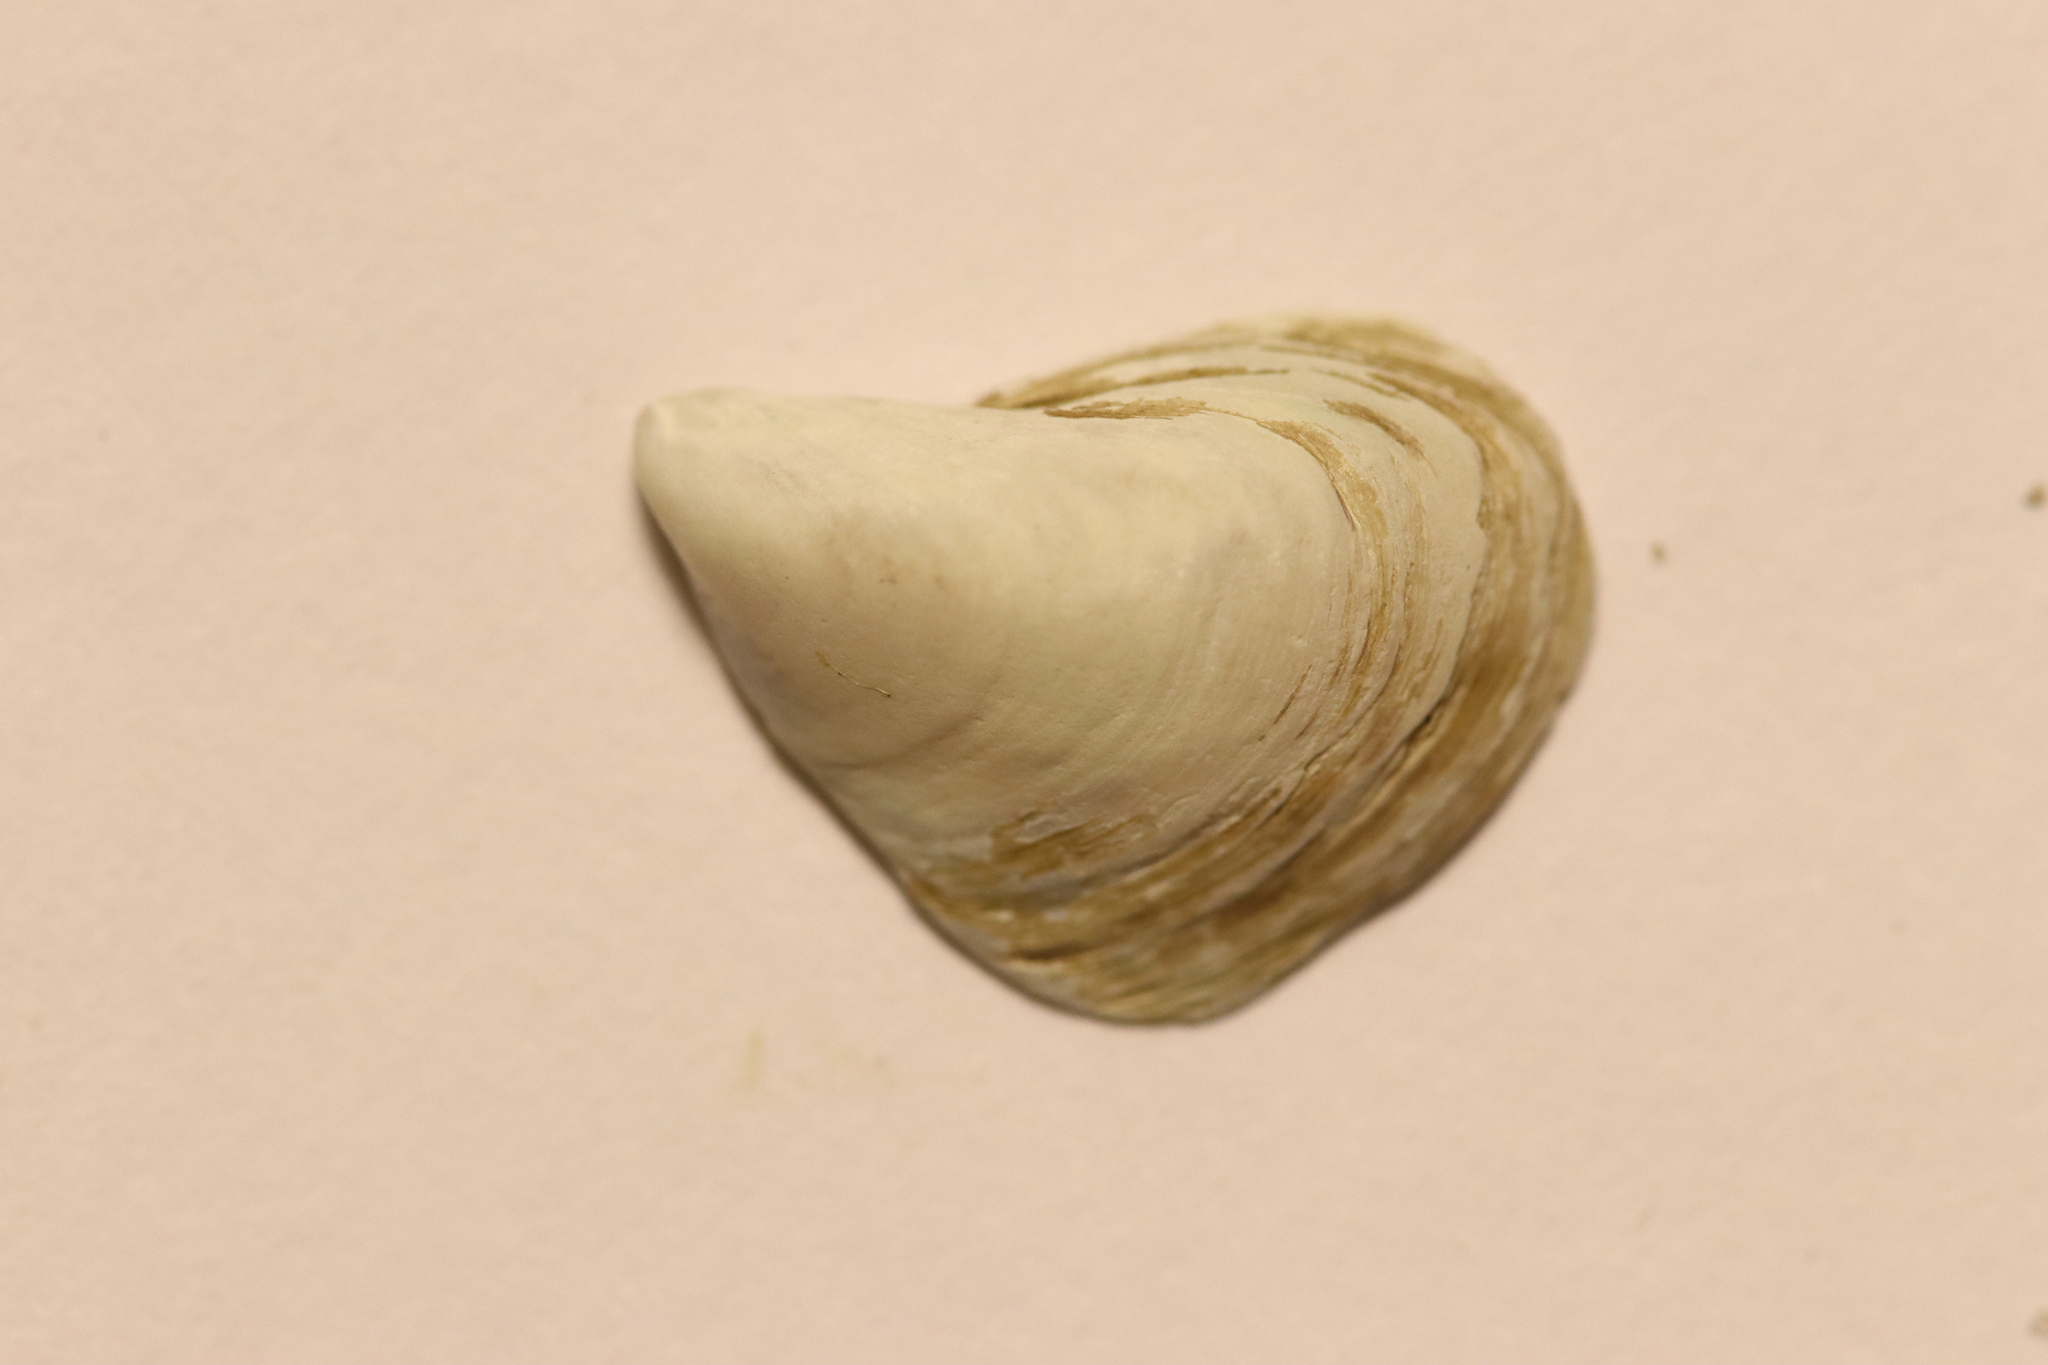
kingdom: Animalia
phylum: Mollusca
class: Bivalvia
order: Myida
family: Dreissenidae
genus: Dreissena
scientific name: Dreissena bugensis
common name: Quagga mussel
